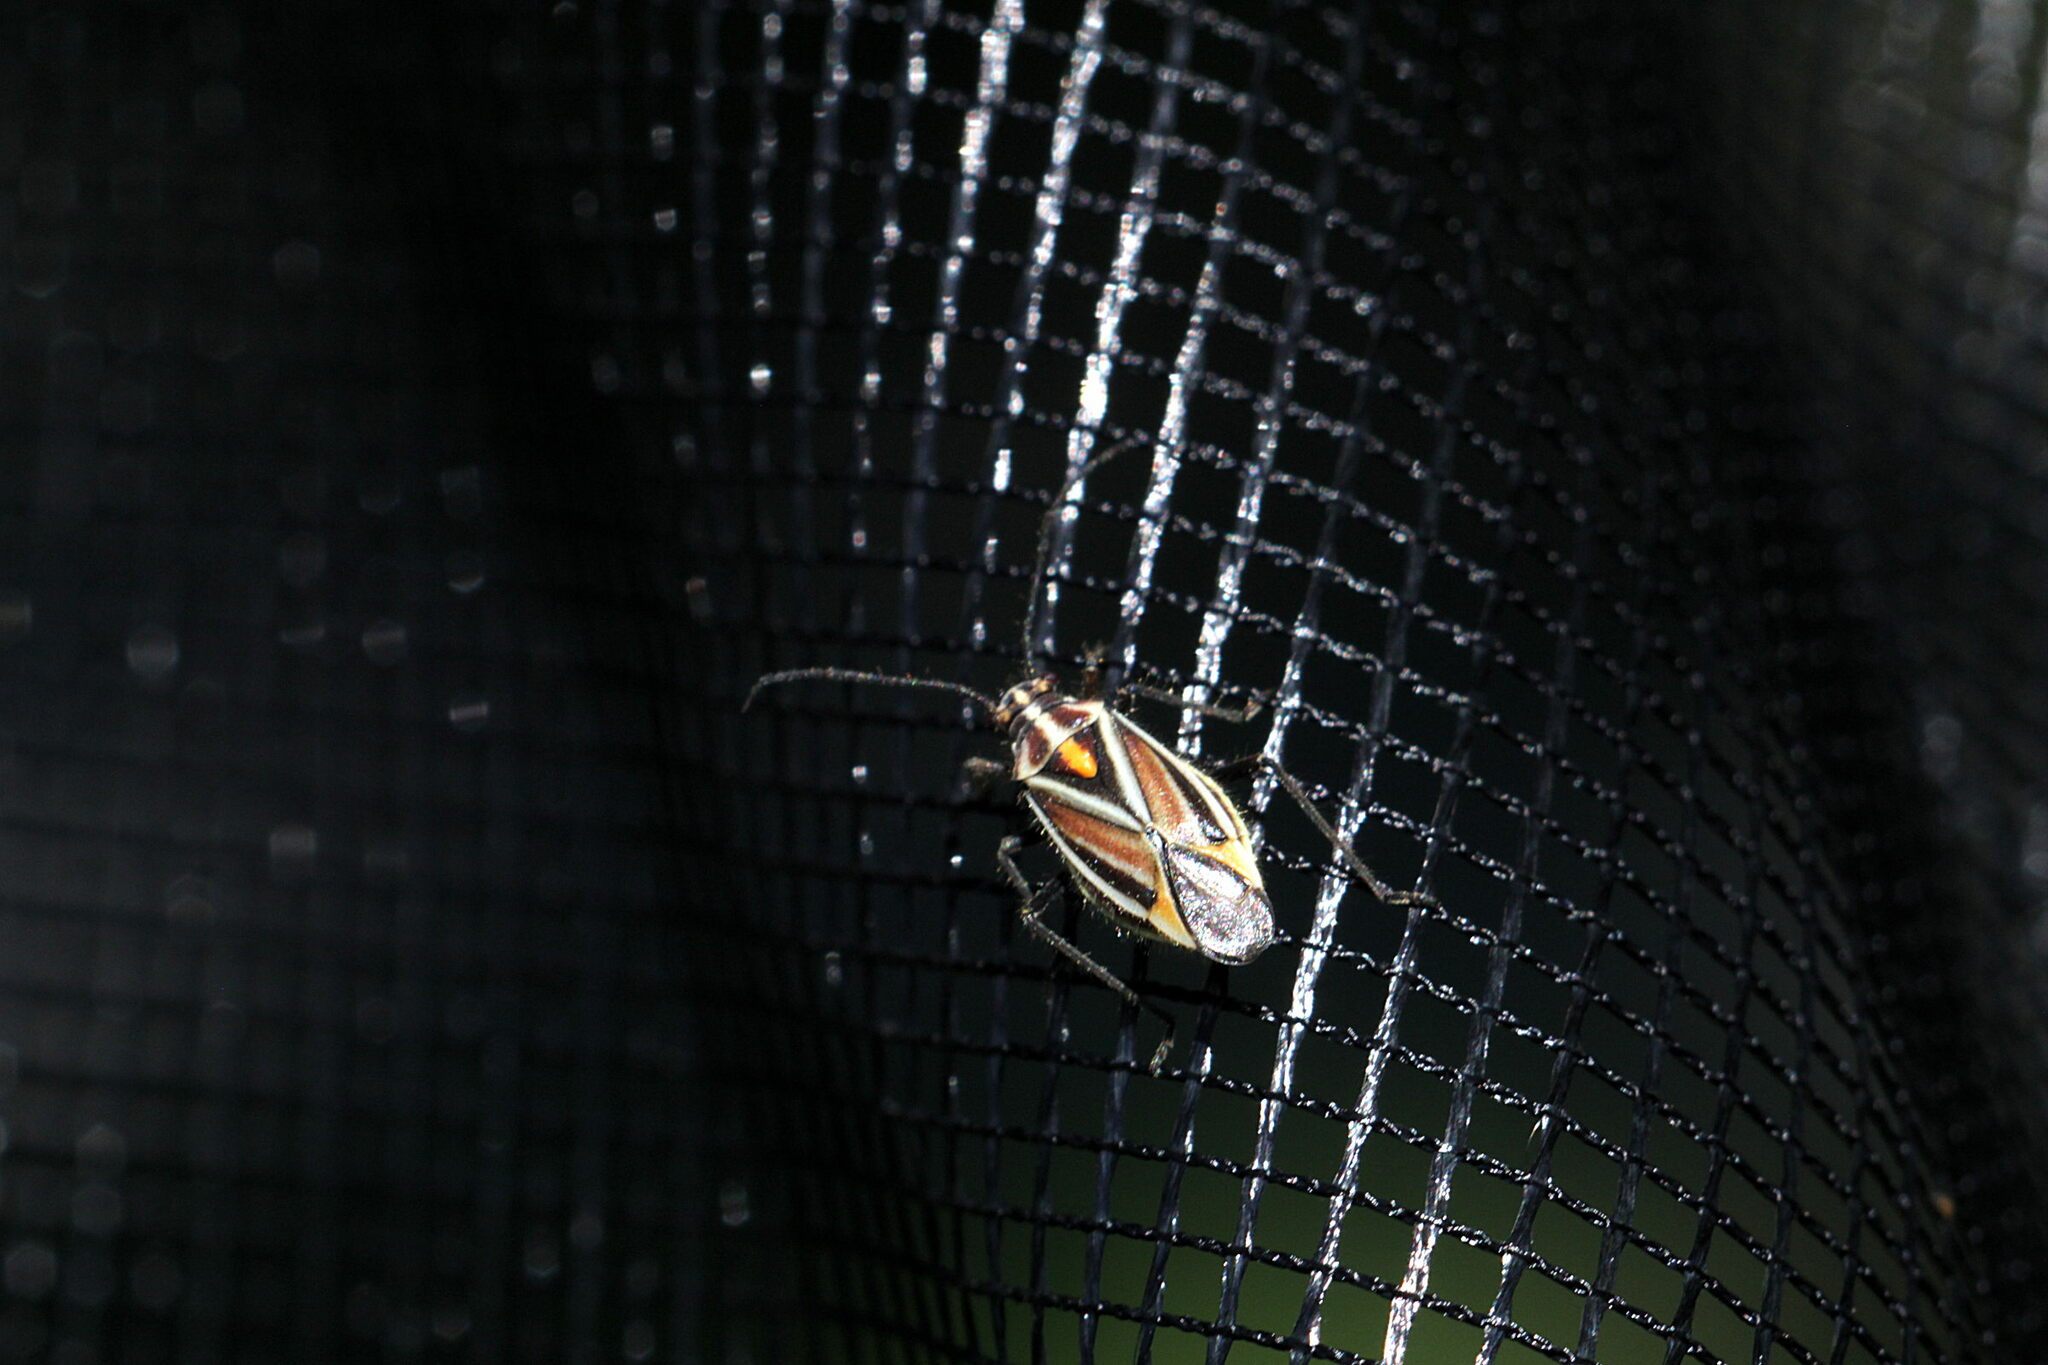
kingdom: Animalia
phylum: Arthropoda
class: Insecta
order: Hemiptera
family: Miridae
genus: Horistus
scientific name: Horistus orientalis
